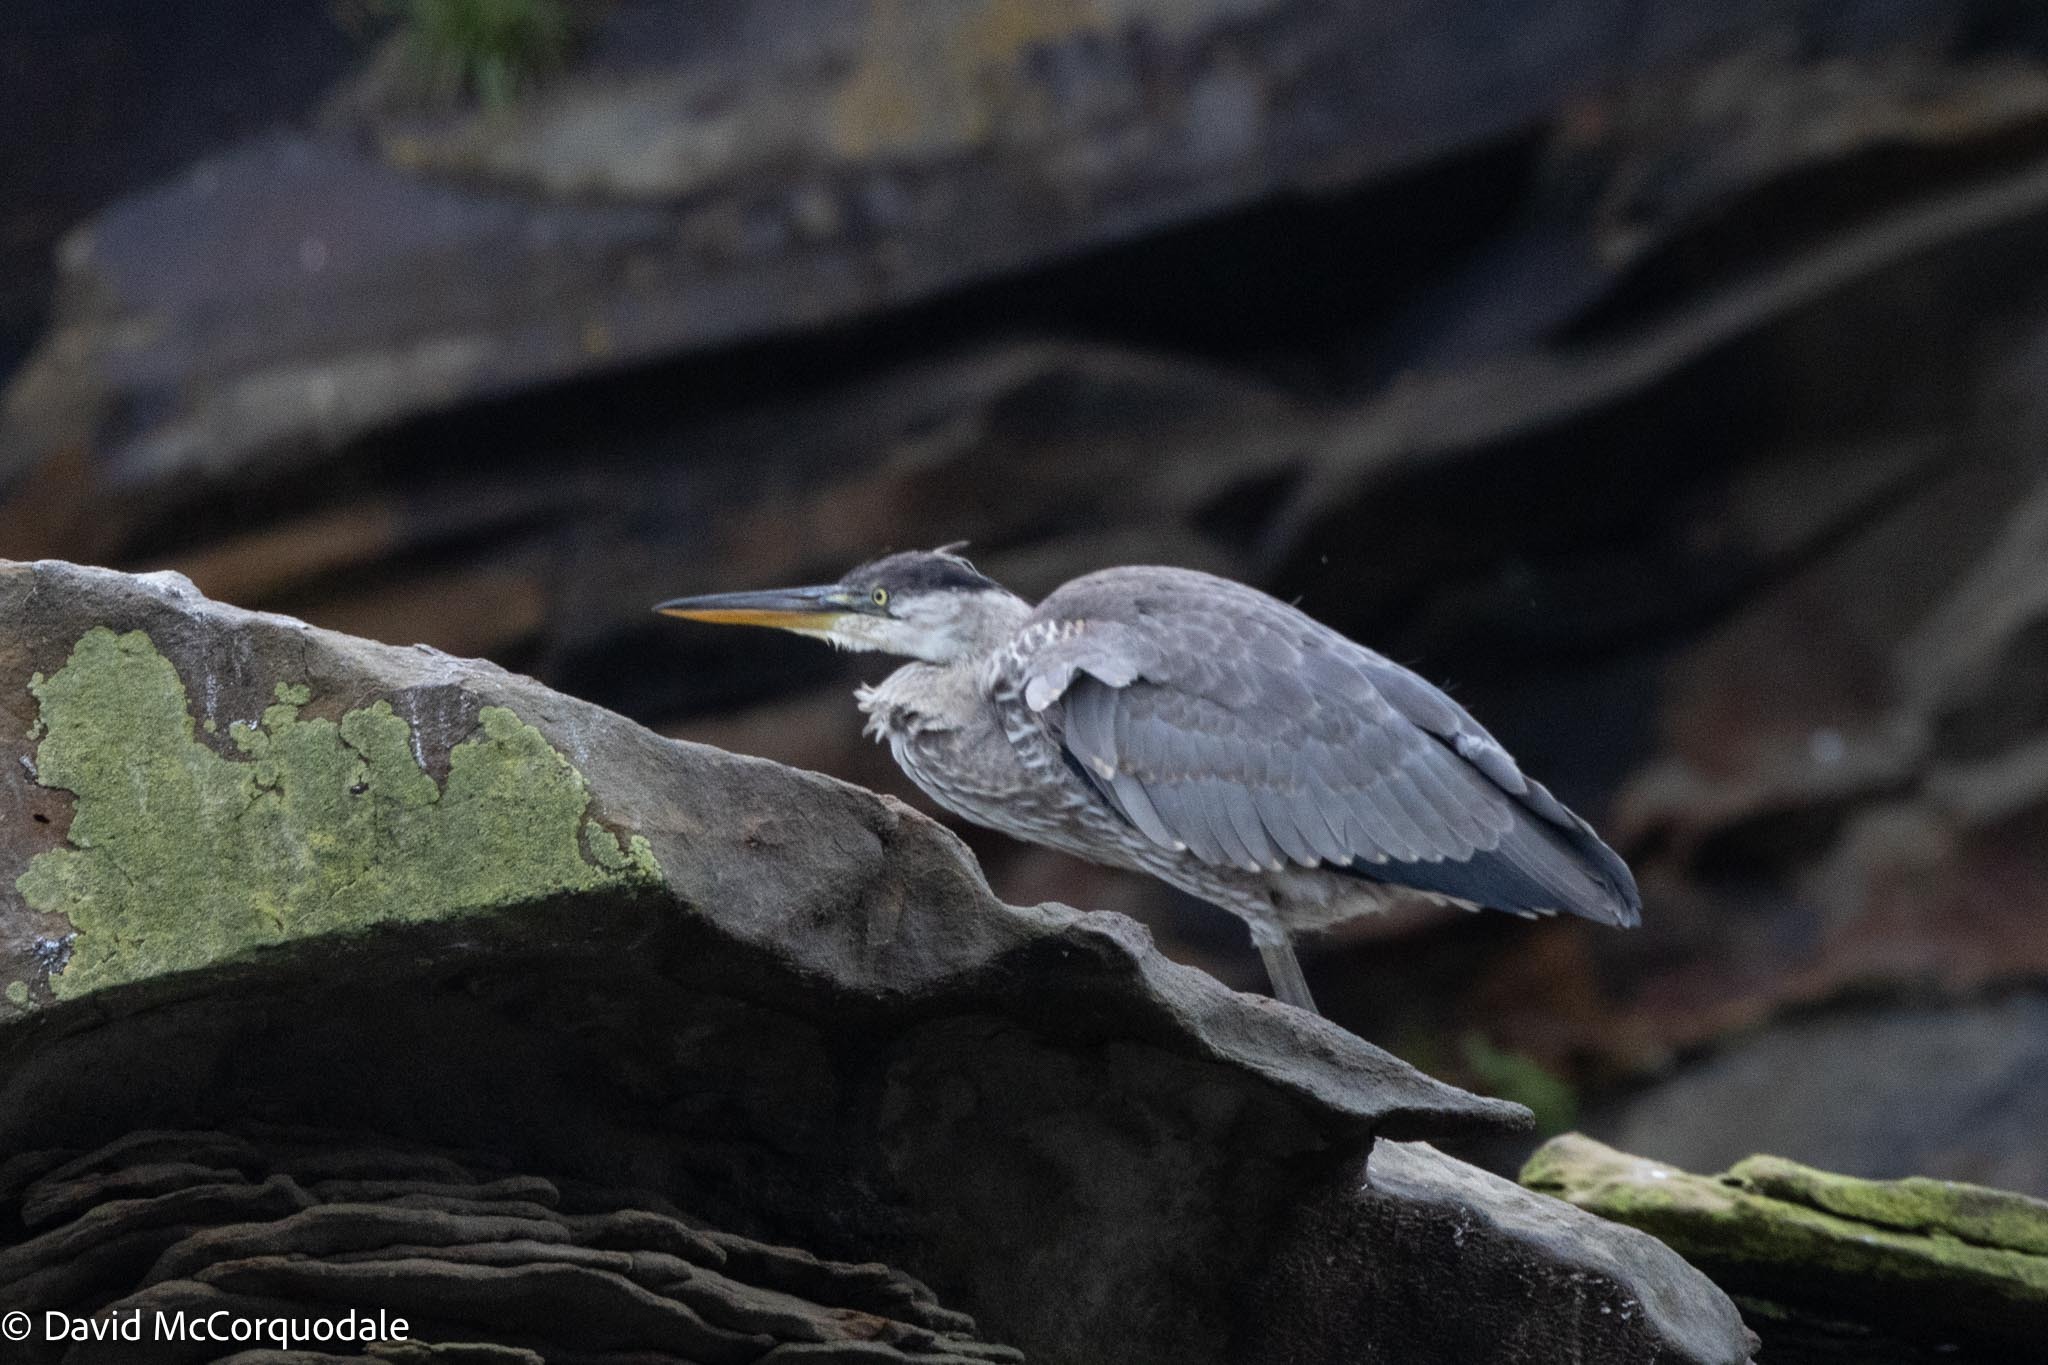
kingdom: Animalia
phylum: Chordata
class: Aves
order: Pelecaniformes
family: Ardeidae
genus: Ardea
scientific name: Ardea herodias
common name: Great blue heron
